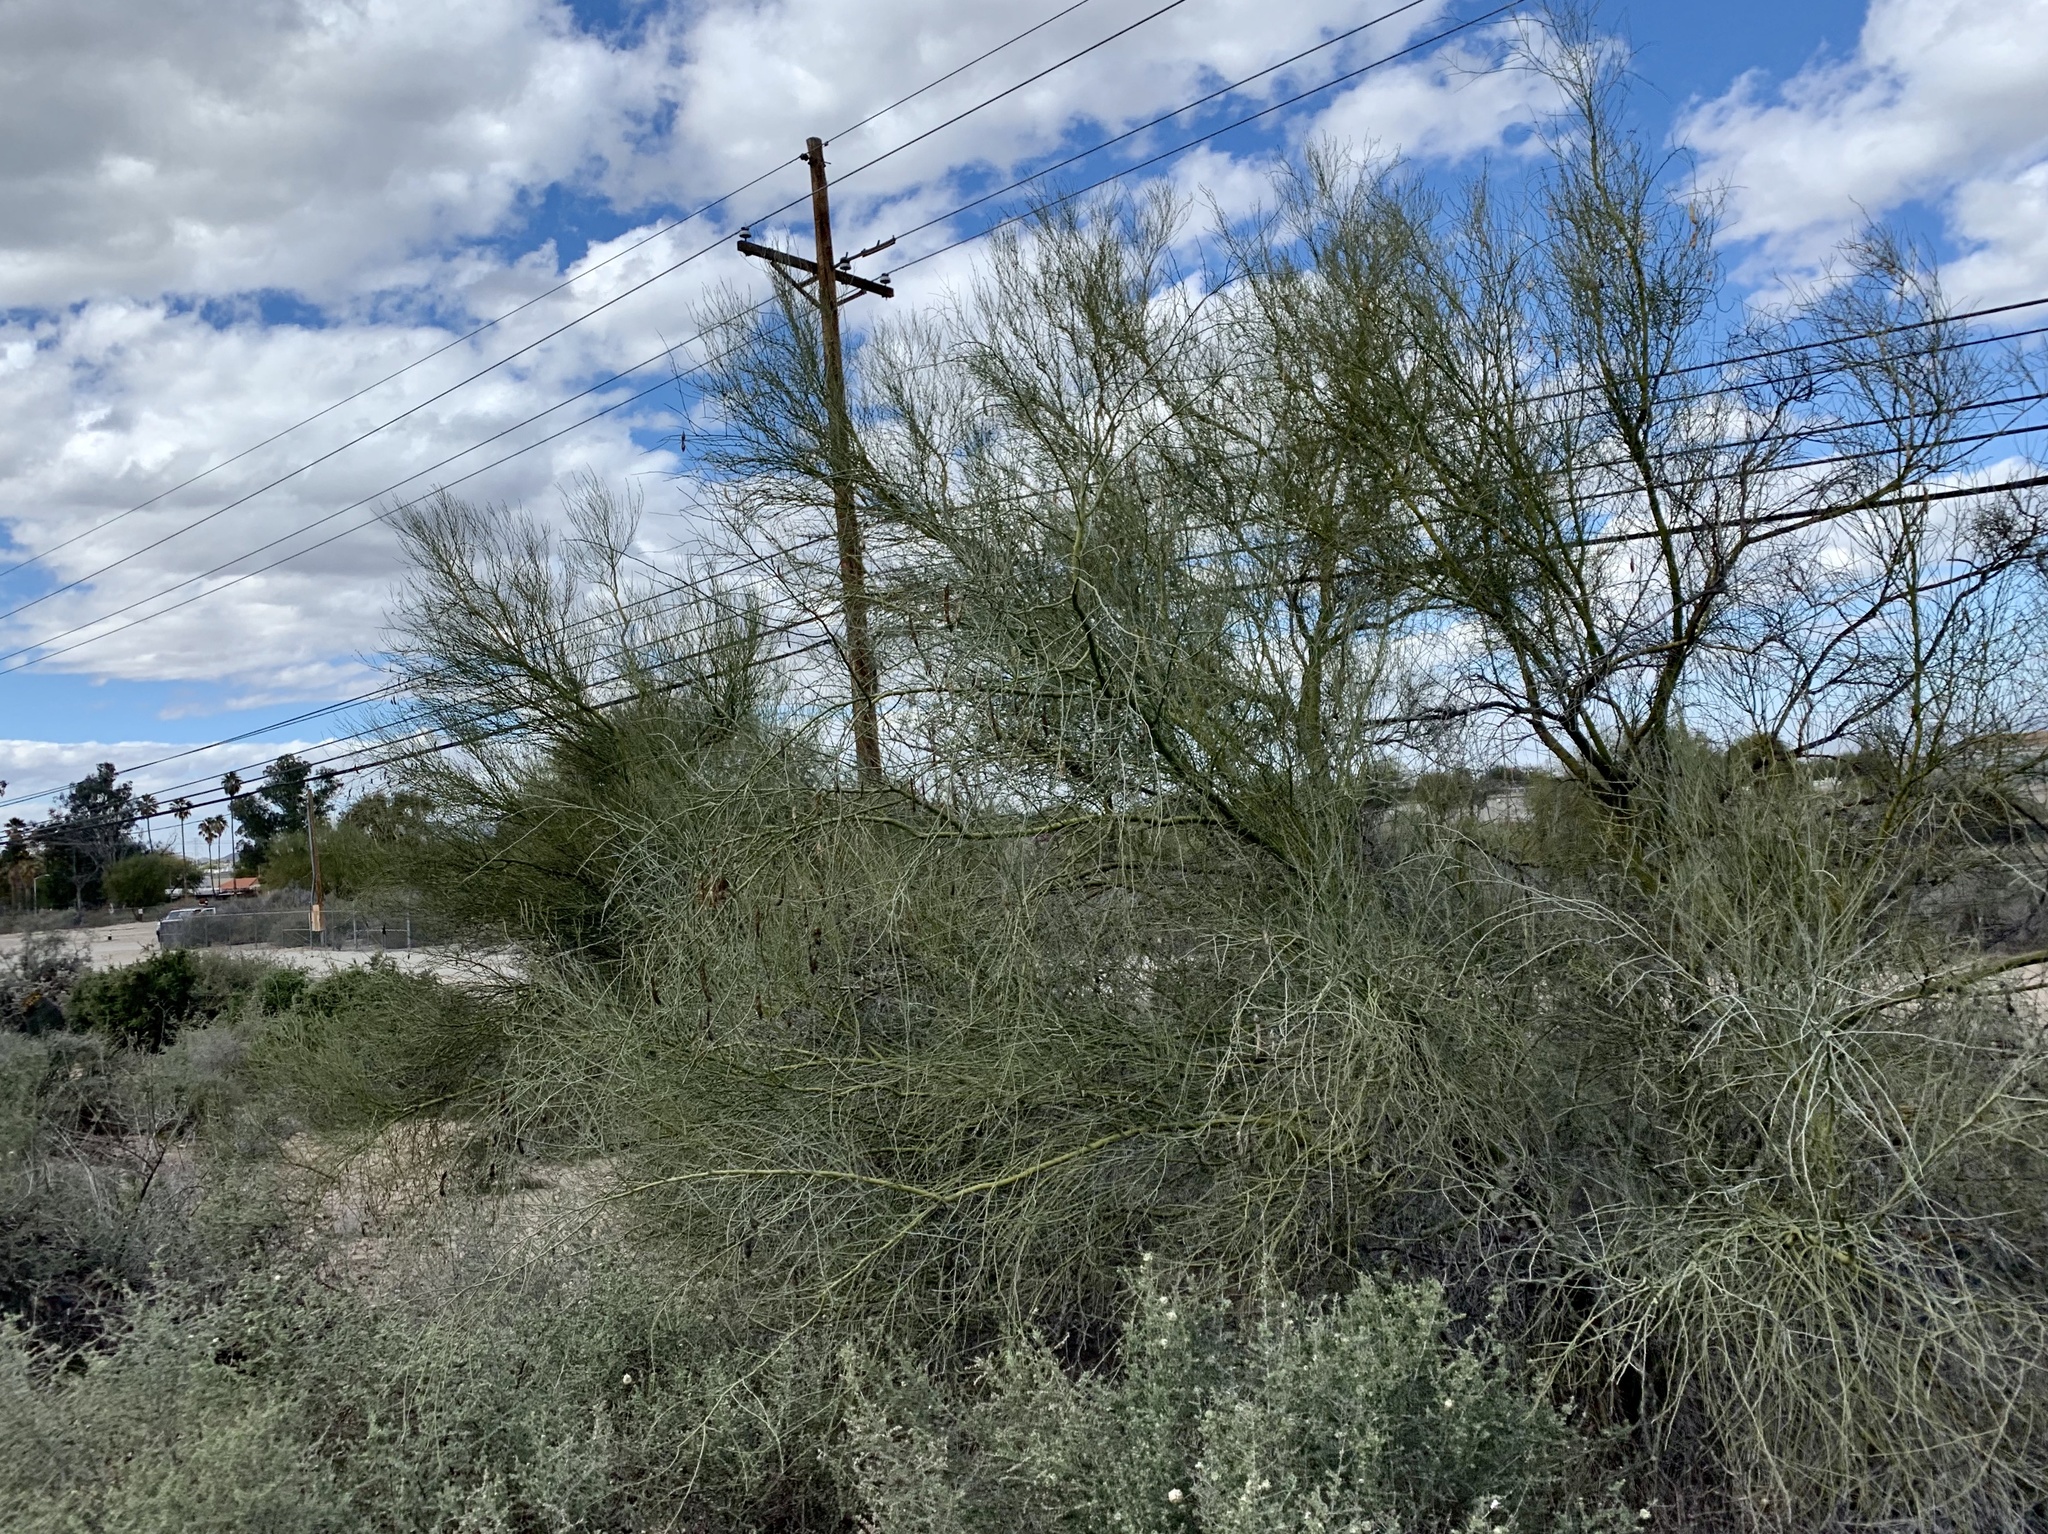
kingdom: Plantae
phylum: Tracheophyta
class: Magnoliopsida
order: Fabales
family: Fabaceae
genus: Parkinsonia
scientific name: Parkinsonia florida
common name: Blue paloverde
